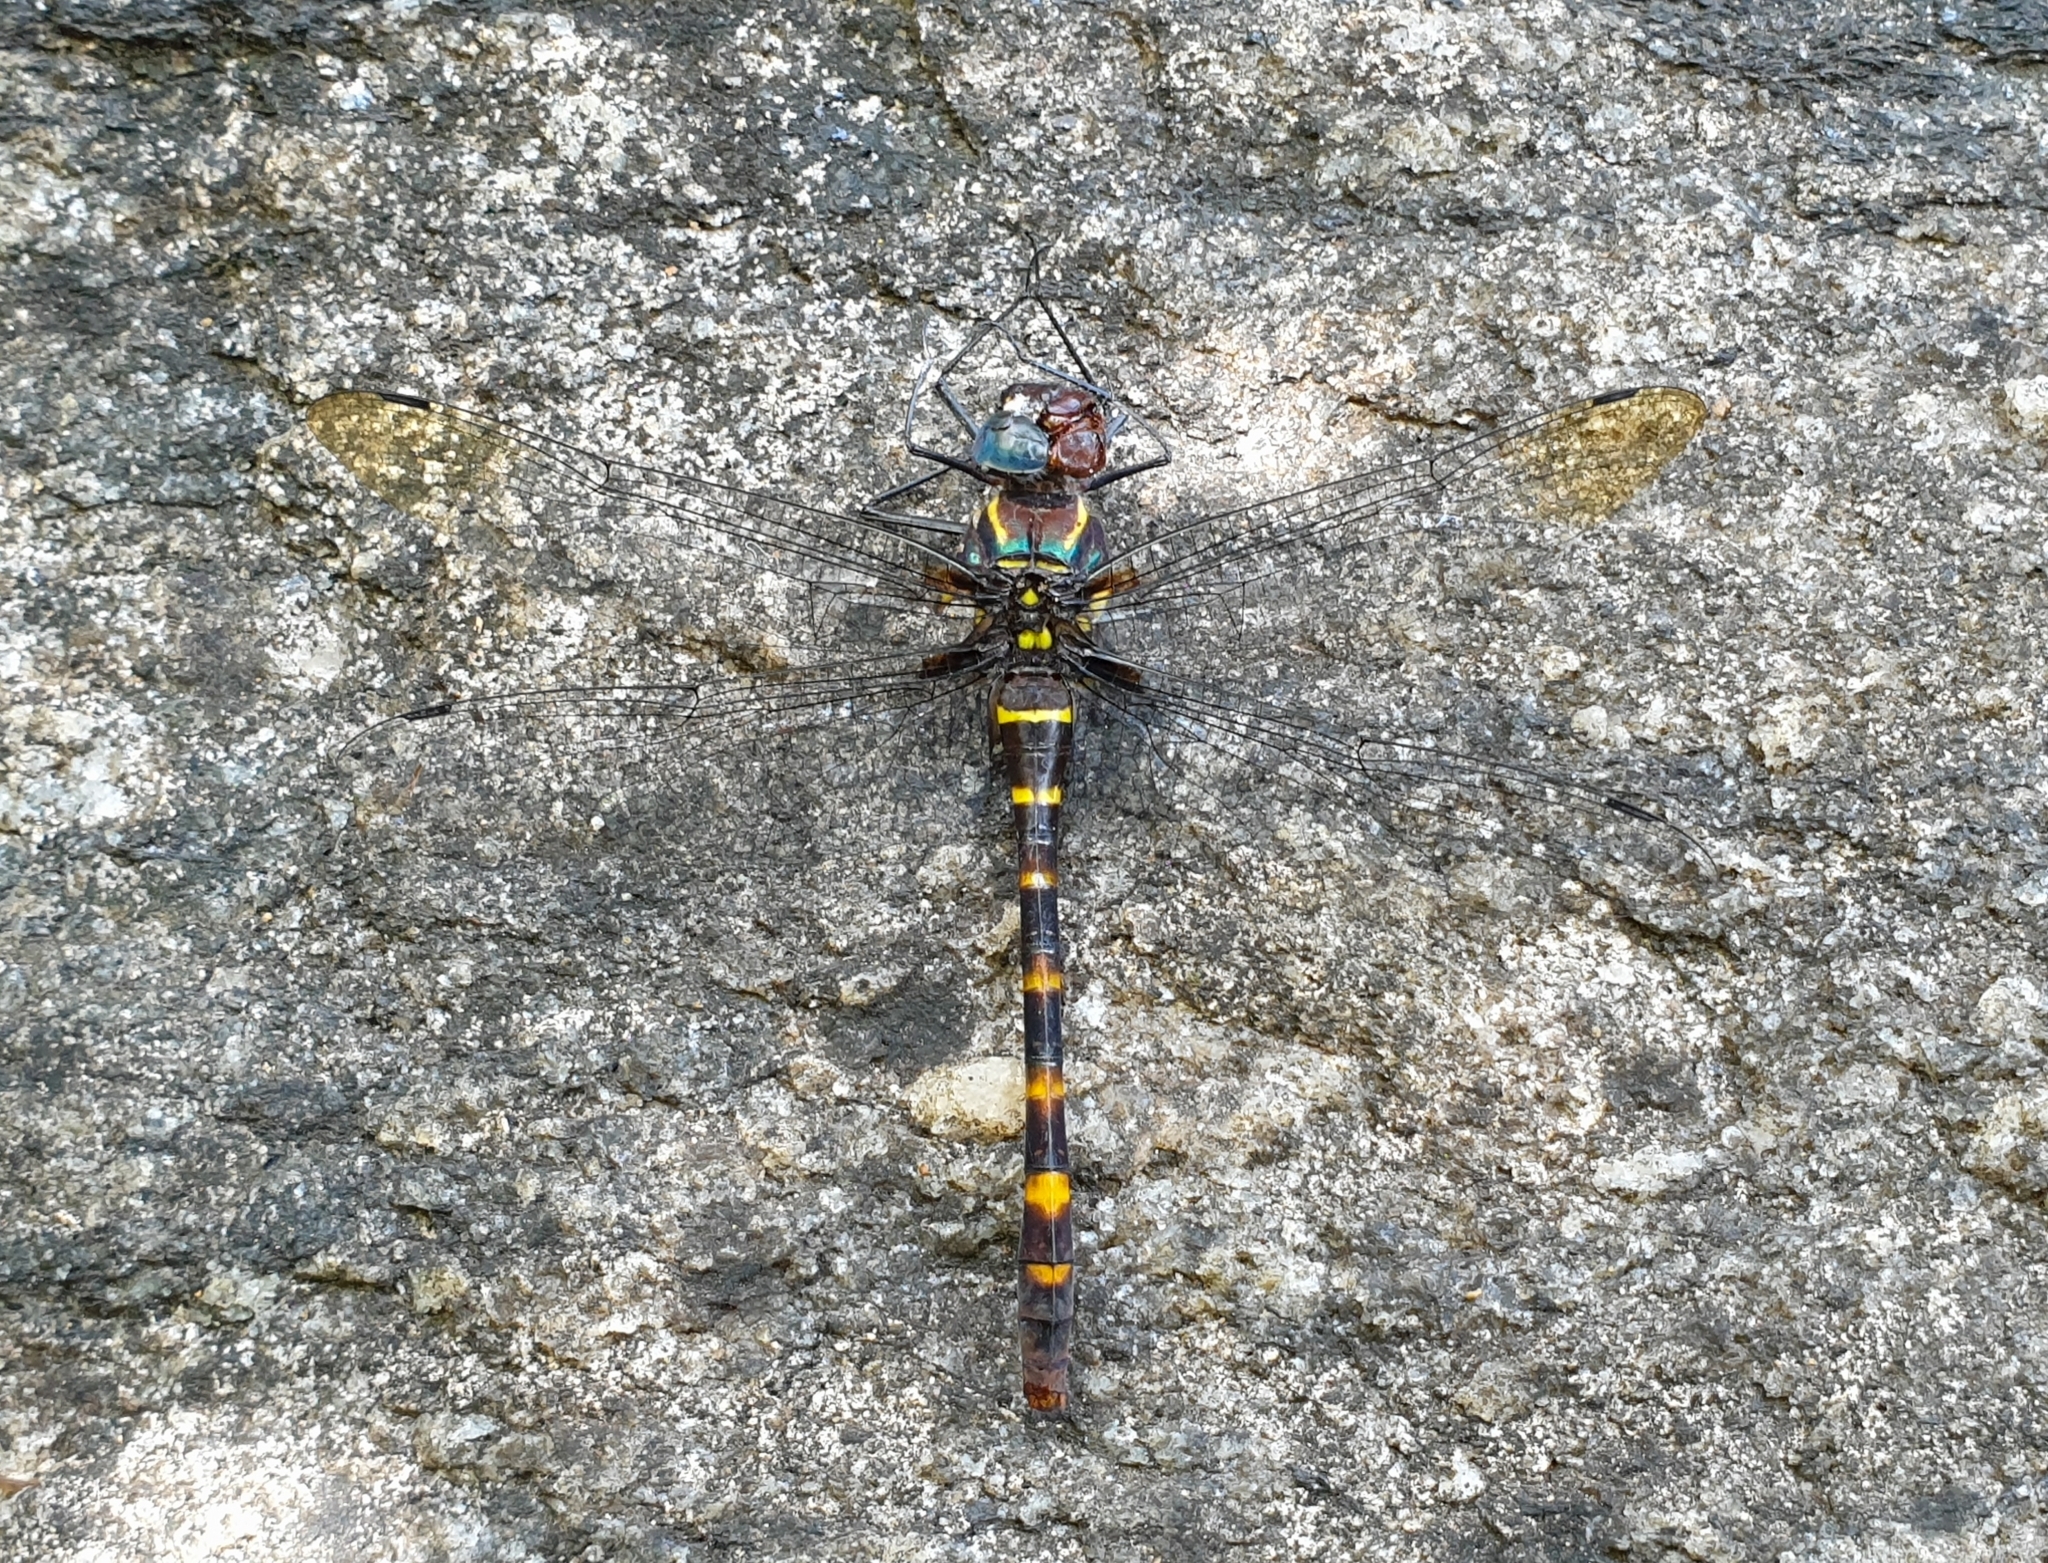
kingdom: Animalia
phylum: Arthropoda
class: Insecta
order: Odonata
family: Macromiidae
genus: Epophthalmia
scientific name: Epophthalmia vittata
